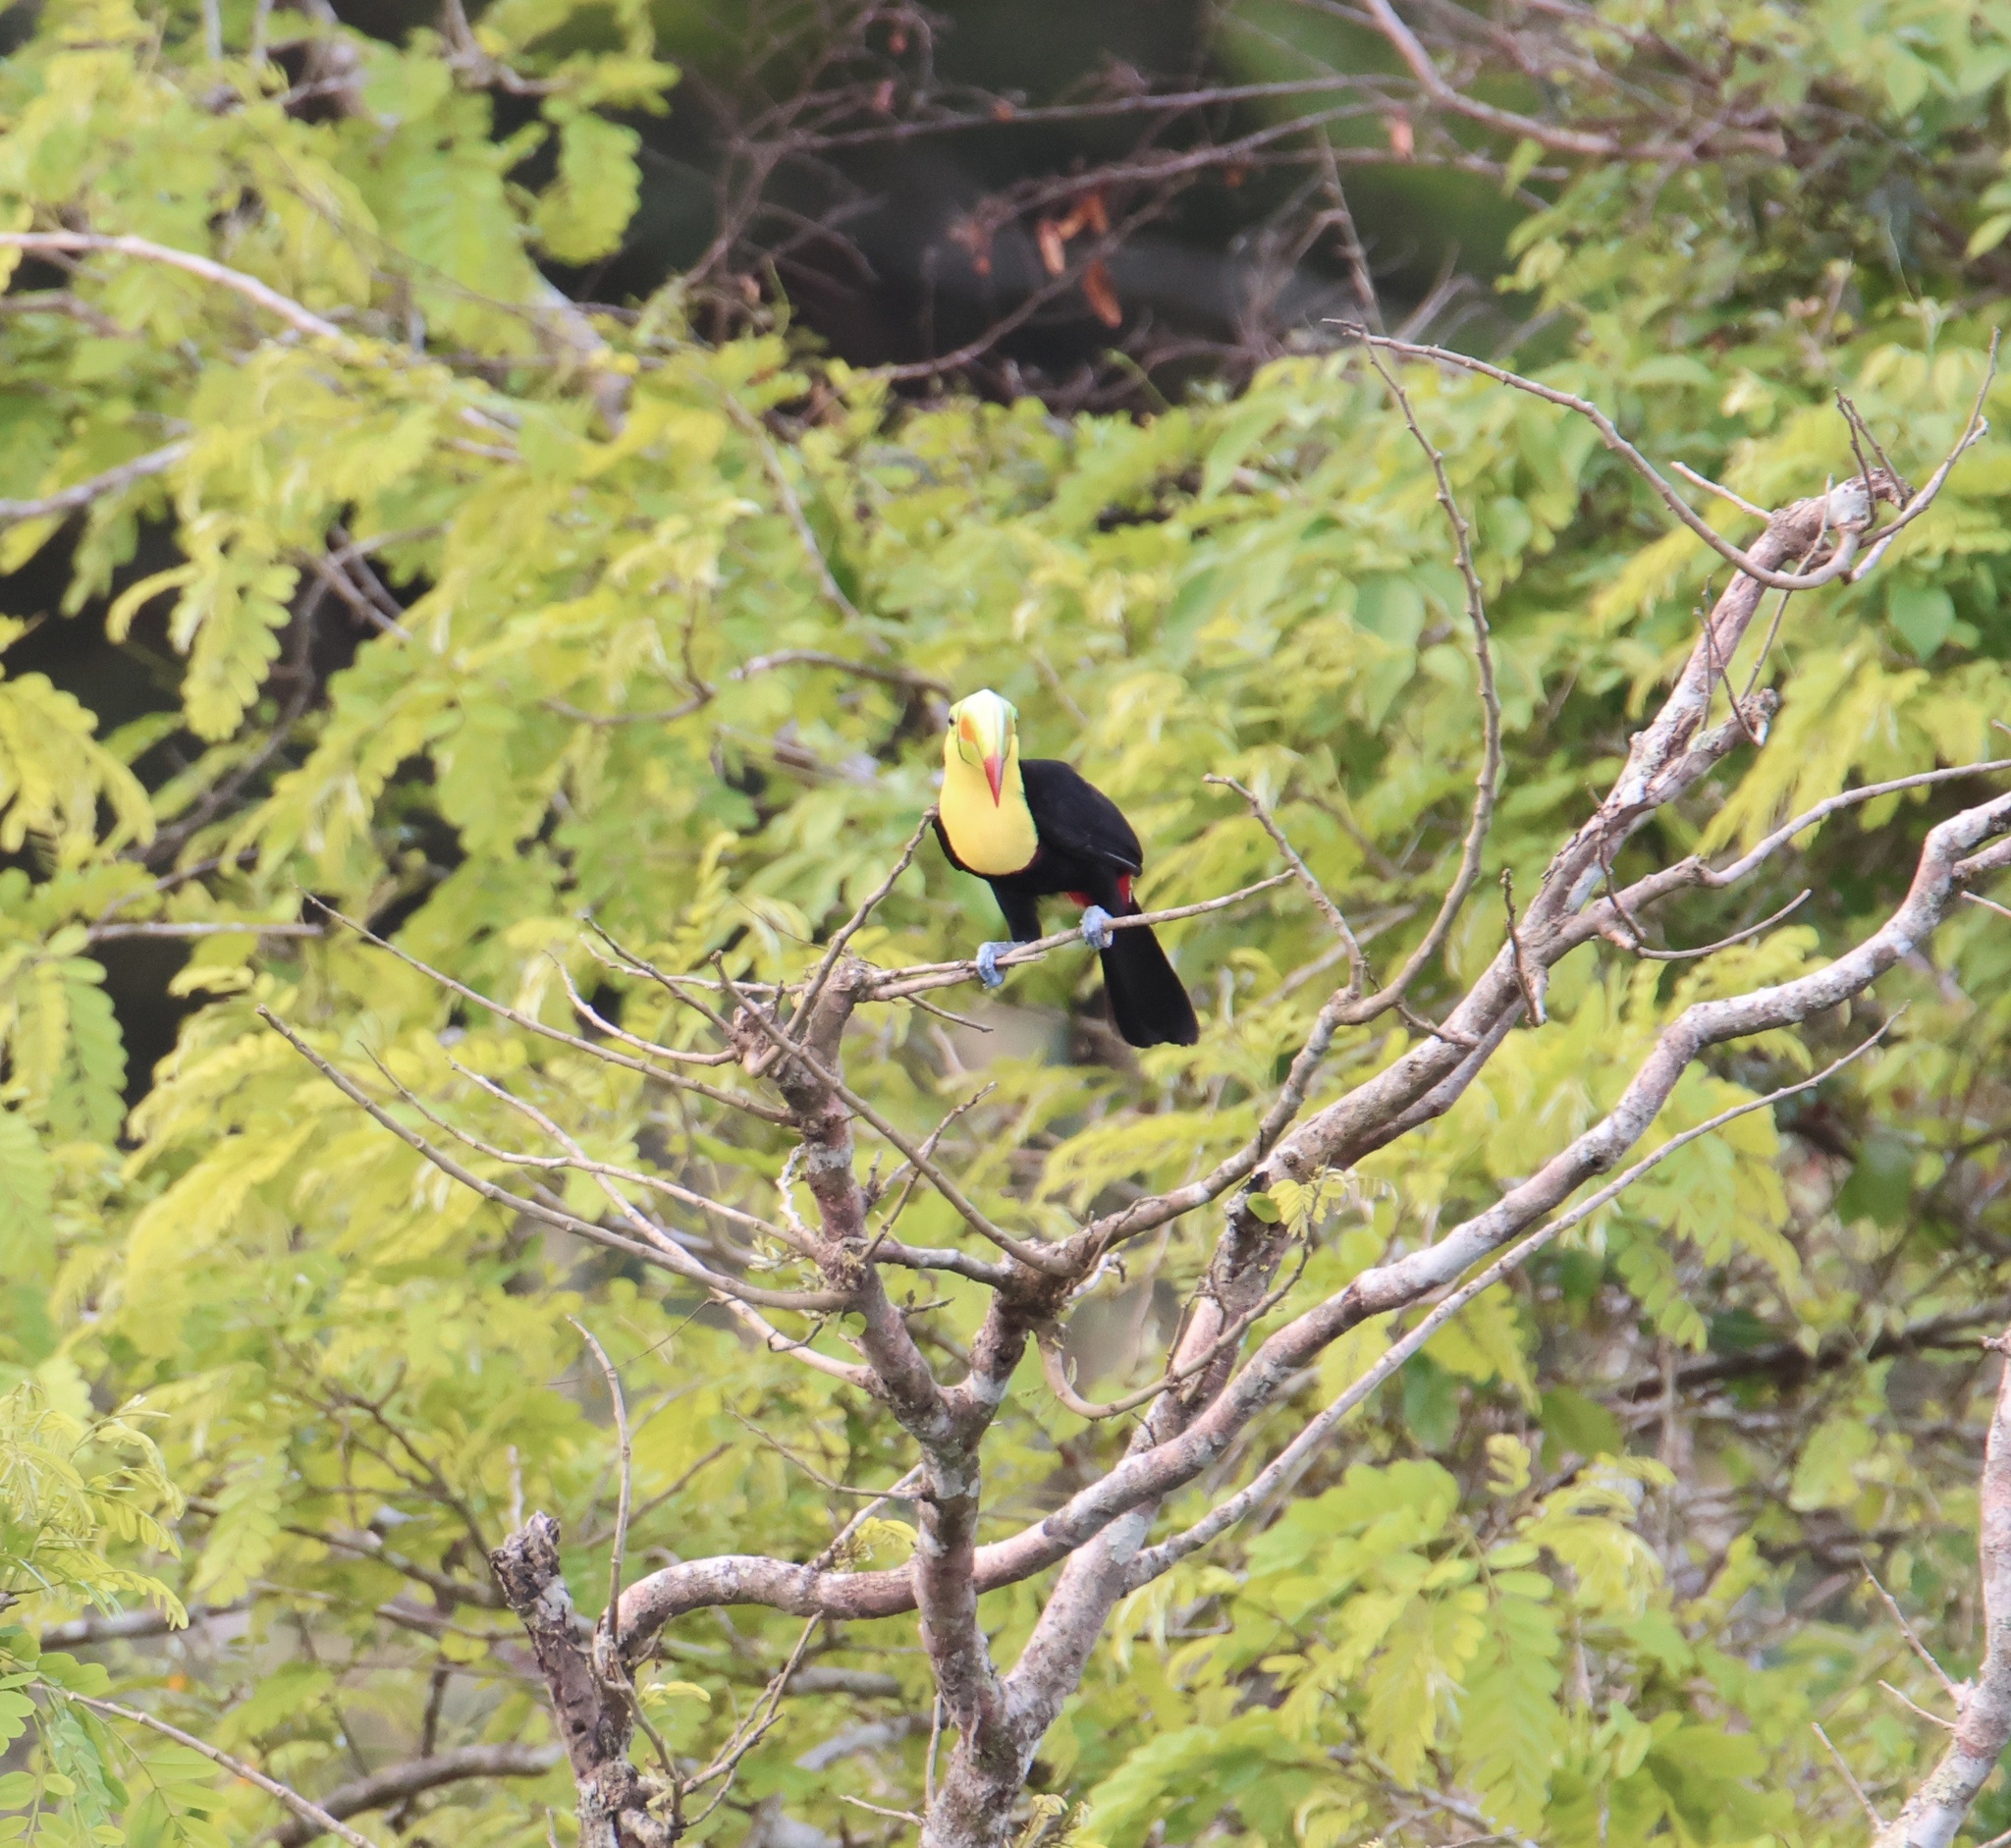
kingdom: Animalia
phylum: Chordata
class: Aves
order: Piciformes
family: Ramphastidae
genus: Ramphastos
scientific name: Ramphastos sulfuratus
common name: Keel-billed toucan
